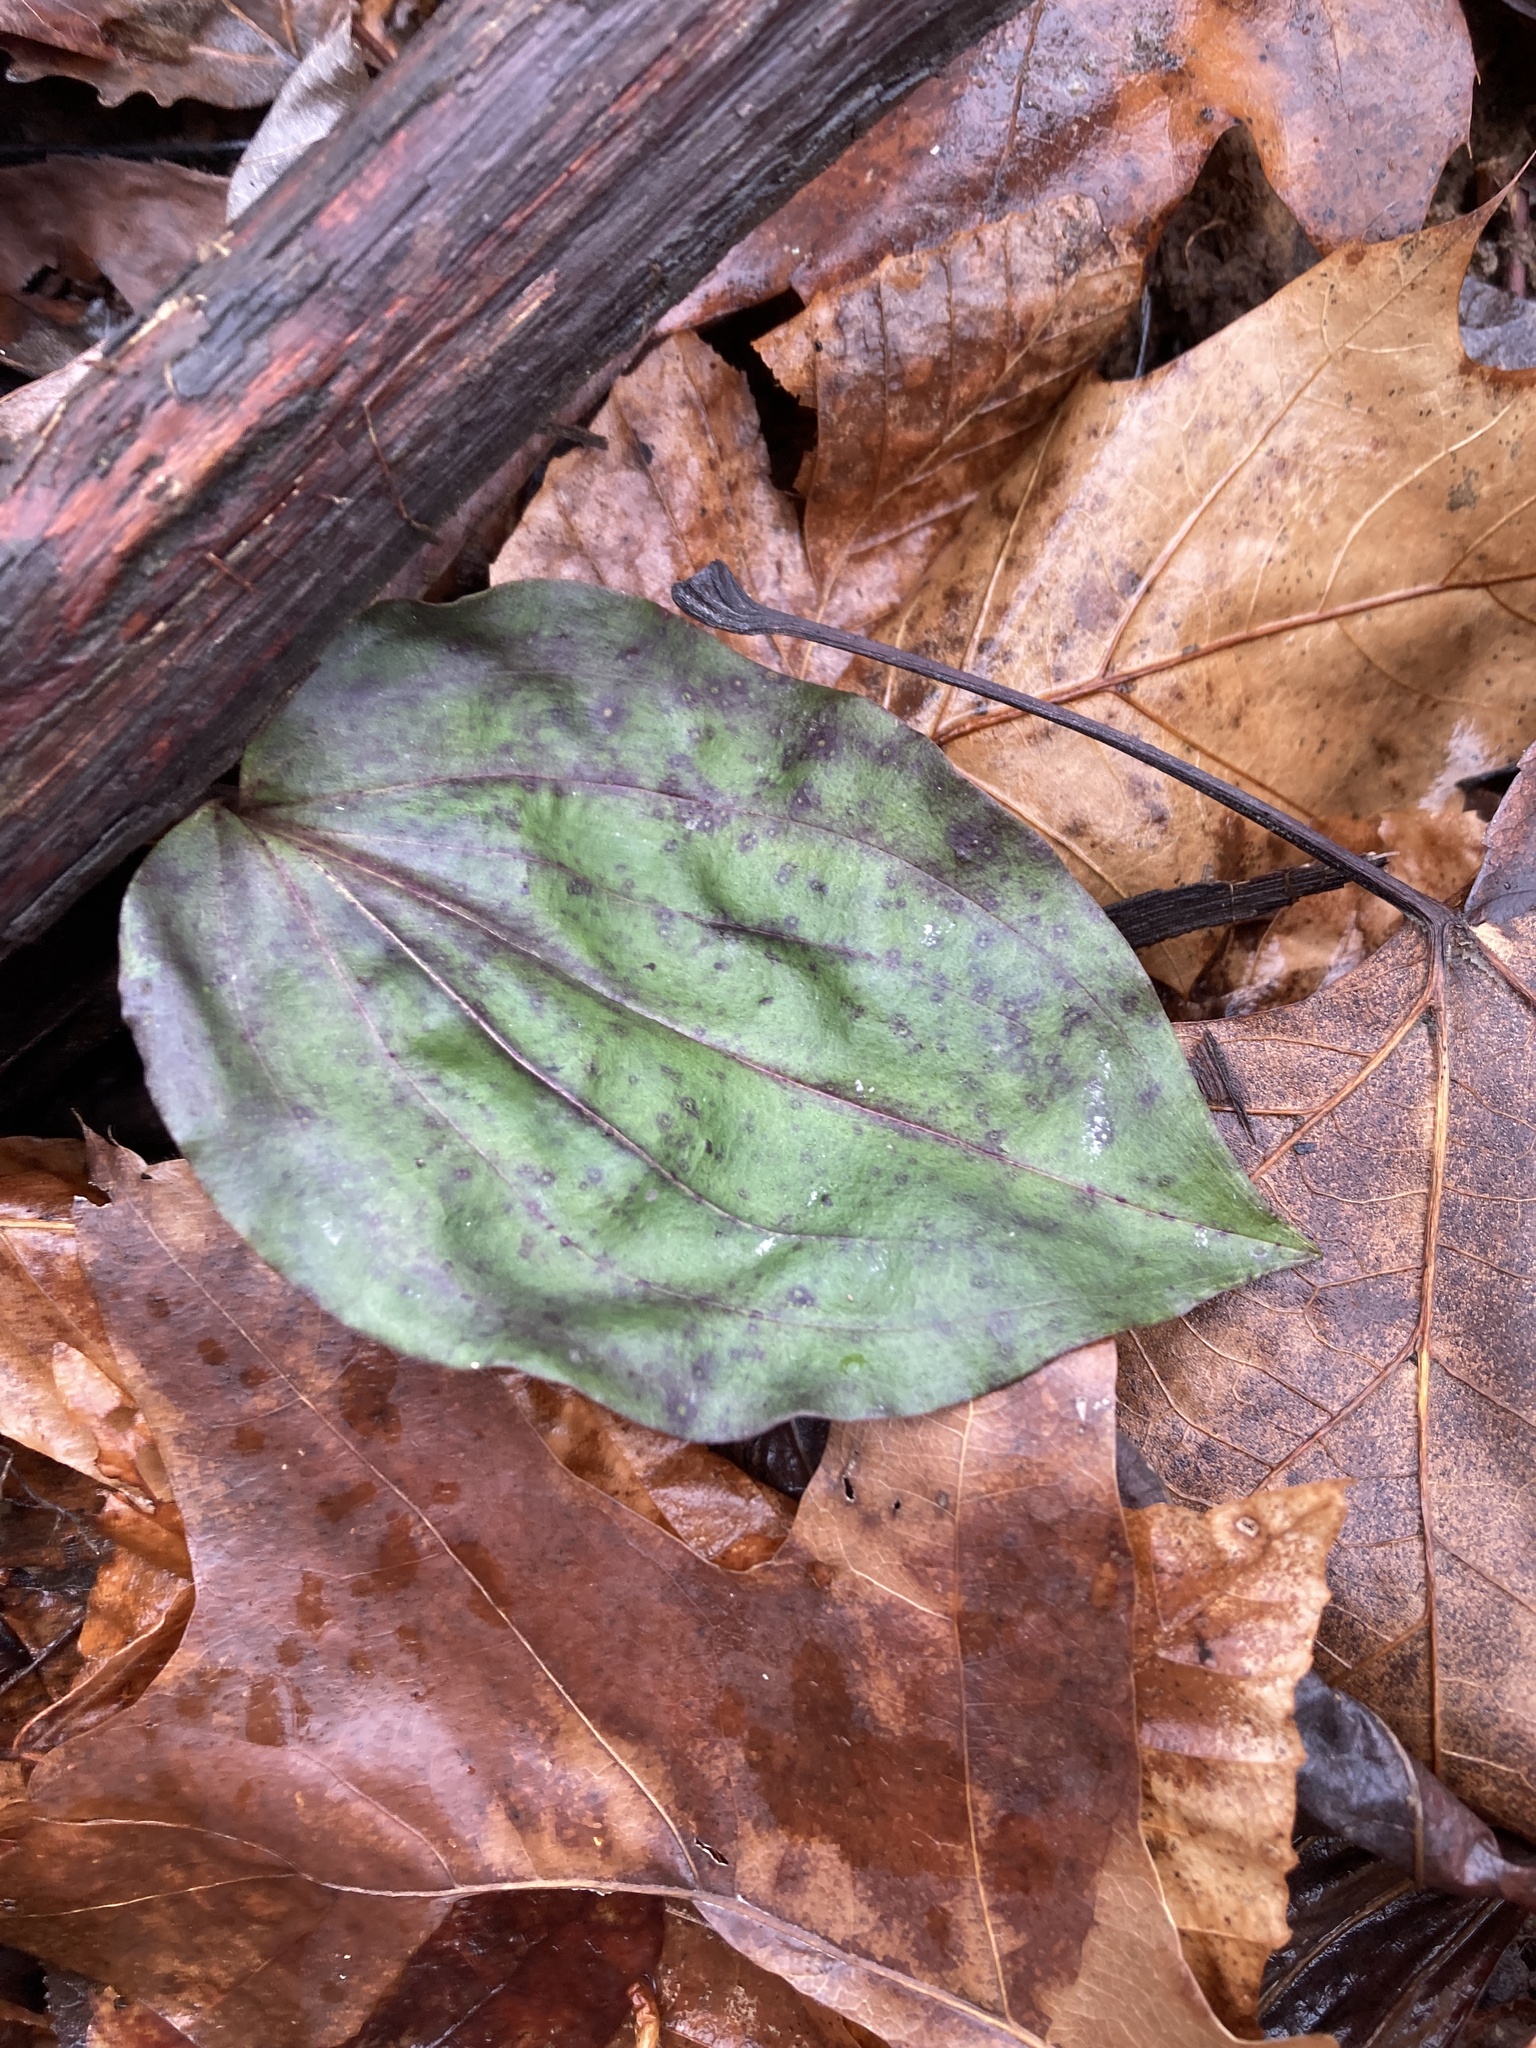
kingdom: Plantae
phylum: Tracheophyta
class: Liliopsida
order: Asparagales
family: Orchidaceae
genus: Tipularia
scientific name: Tipularia discolor
